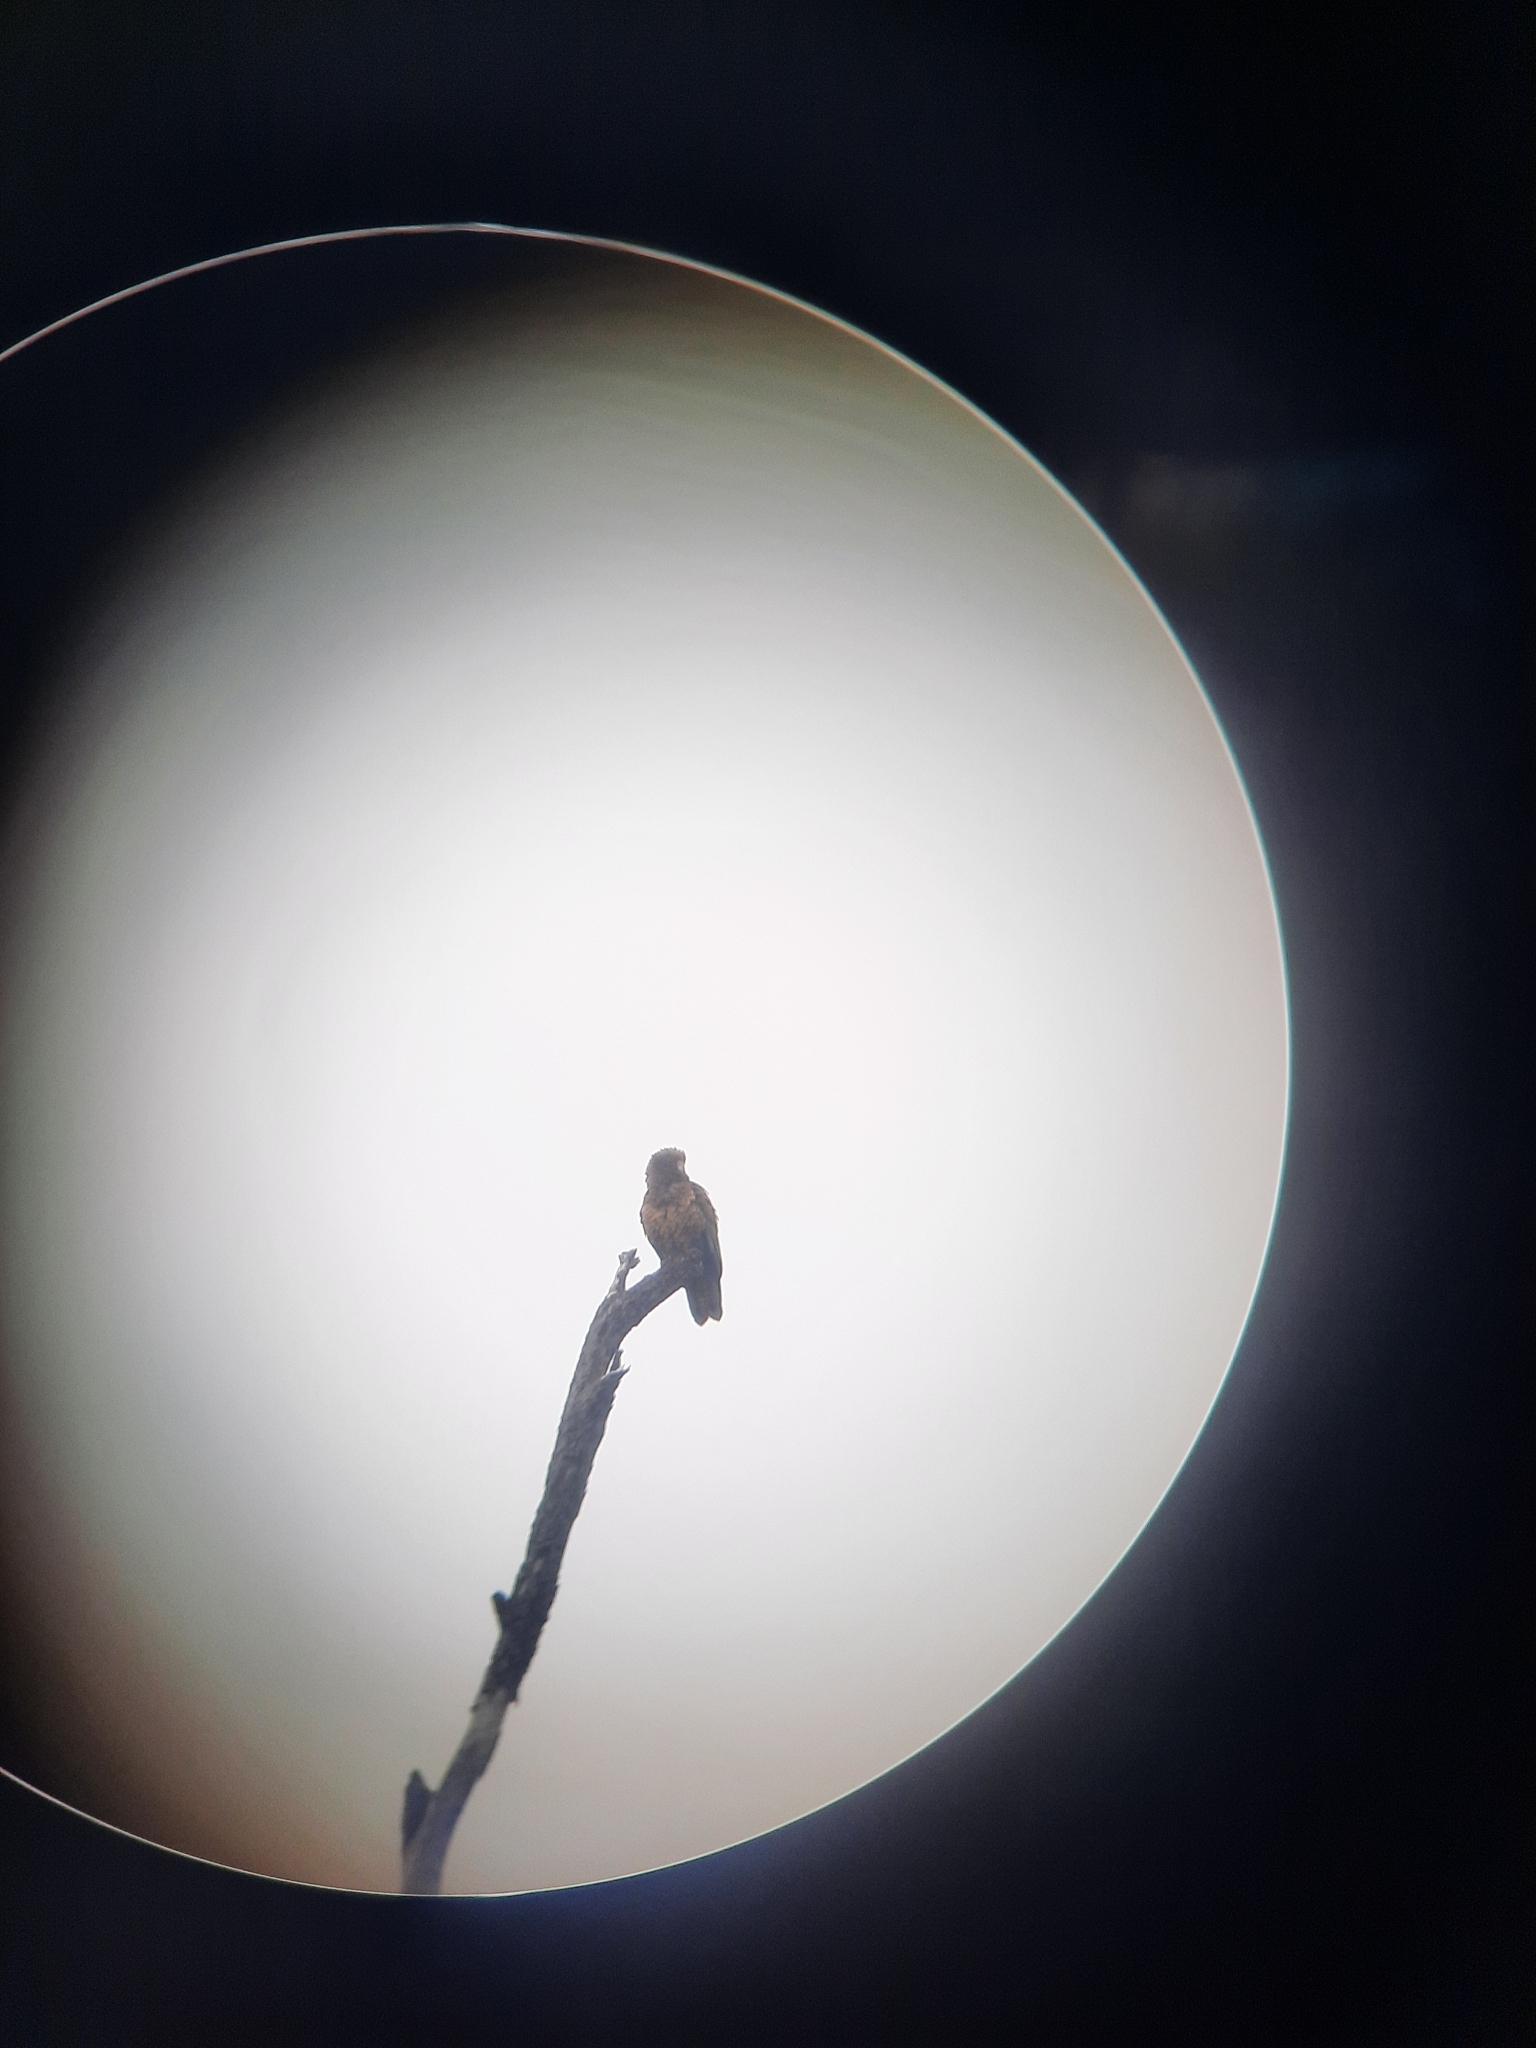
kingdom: Animalia
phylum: Chordata
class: Aves
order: Psittaciformes
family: Psittacidae
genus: Nestor
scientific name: Nestor notabilis
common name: Kea
